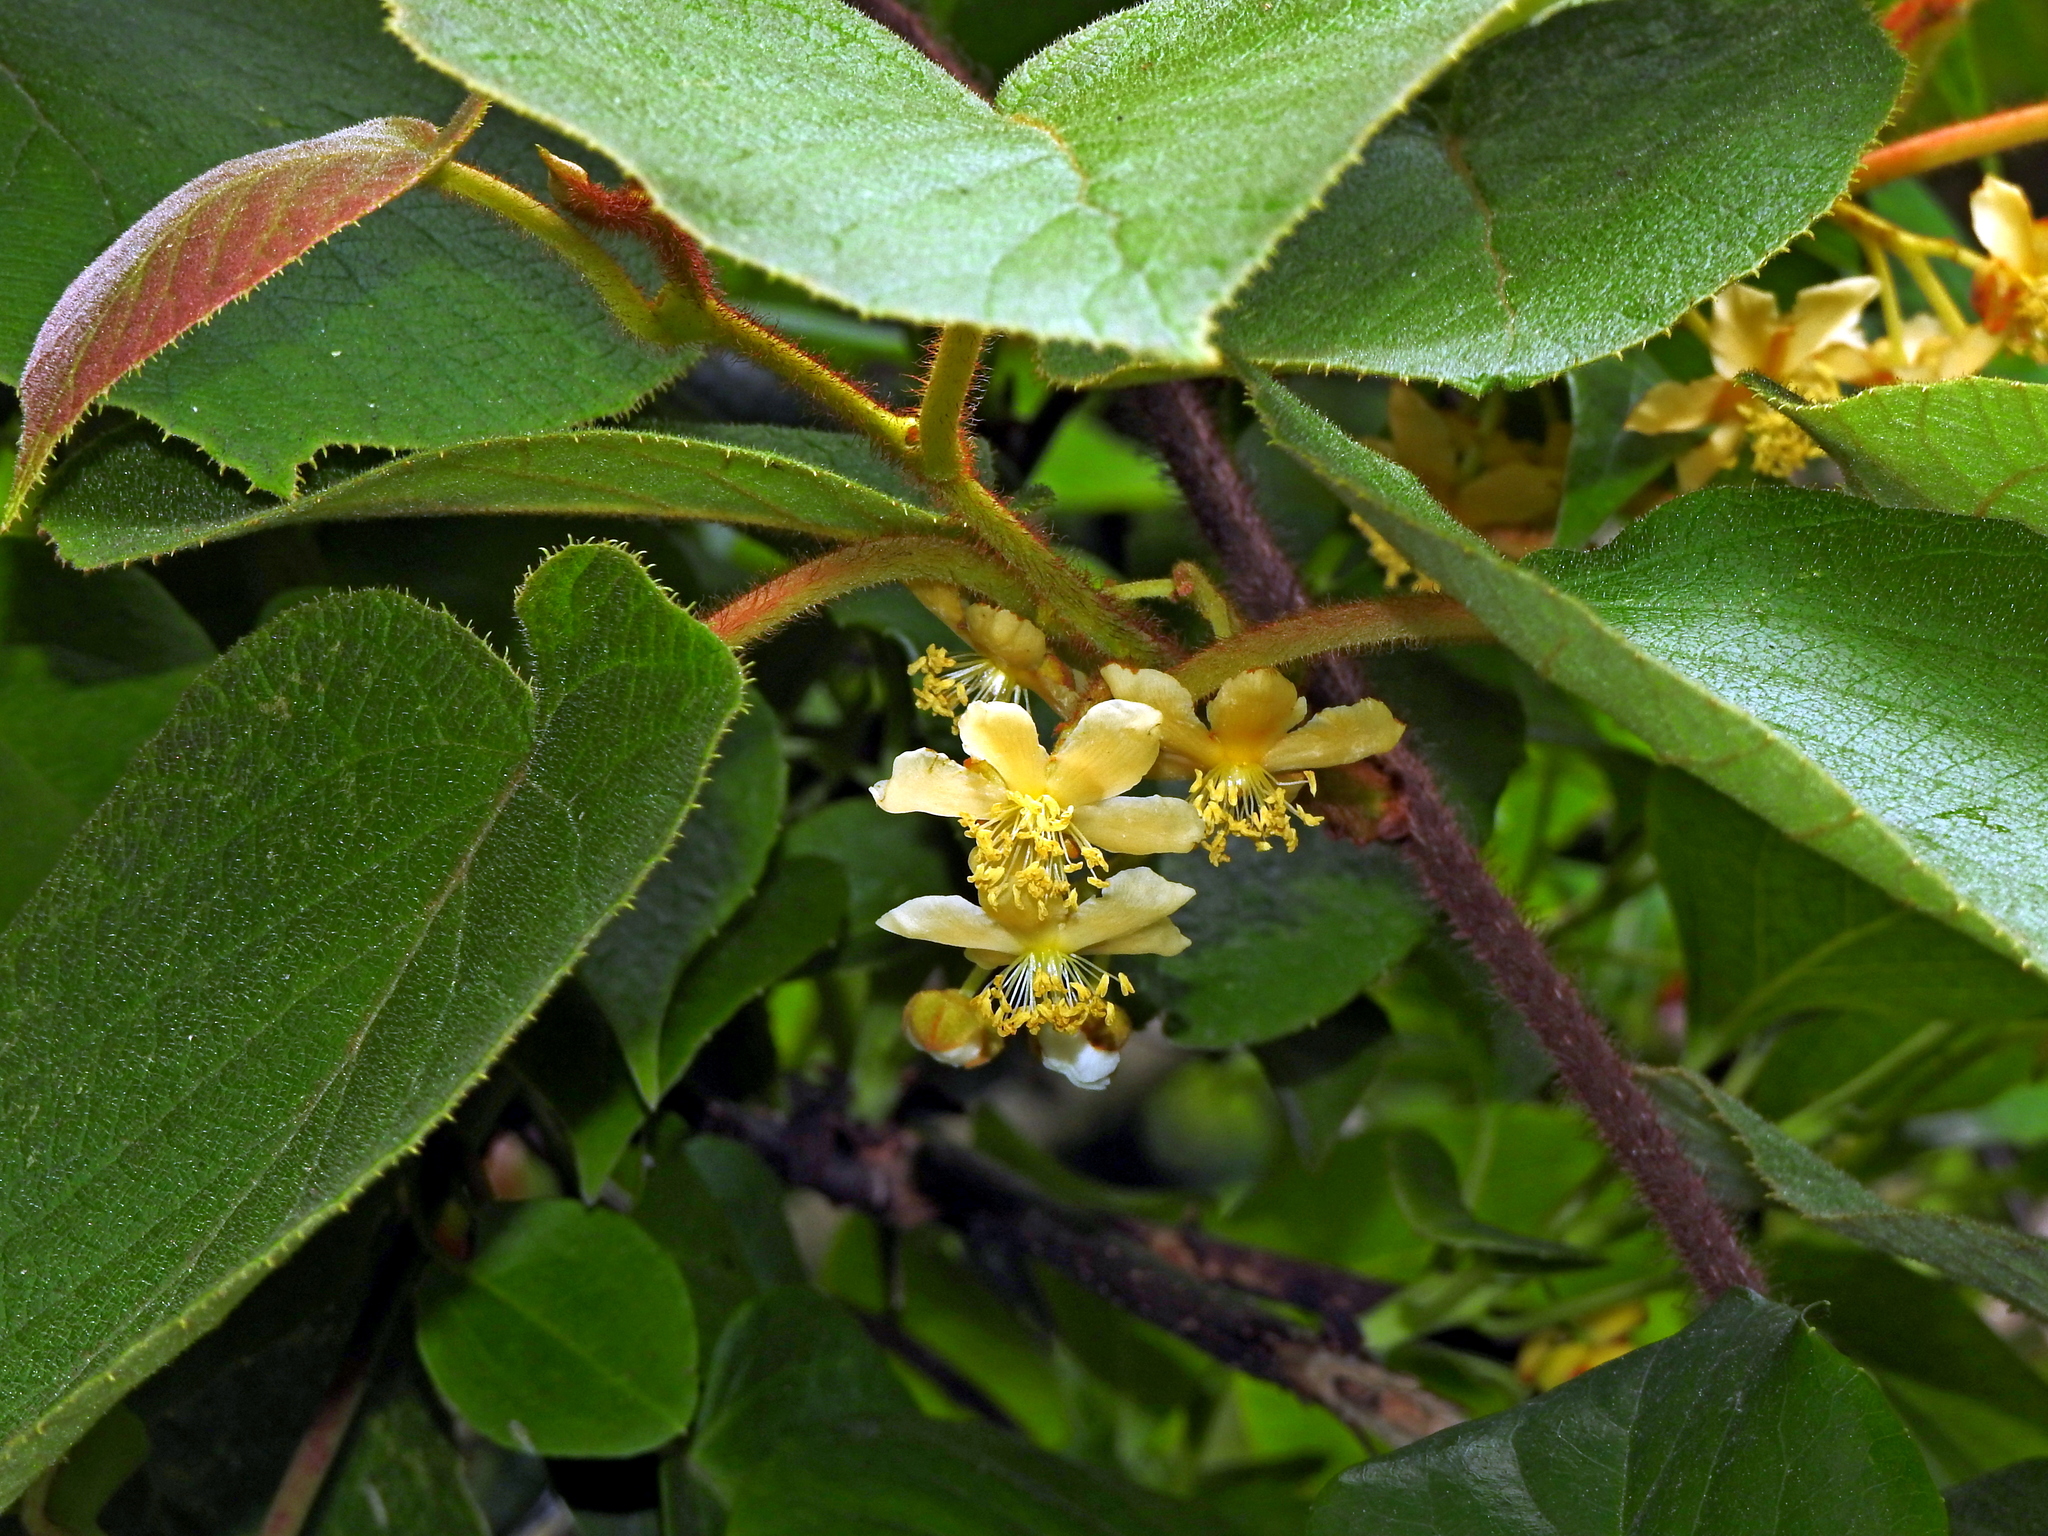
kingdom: Plantae
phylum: Tracheophyta
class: Magnoliopsida
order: Ericales
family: Actinidiaceae
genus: Actinidia
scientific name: Actinidia chinensis
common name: Kiwi
